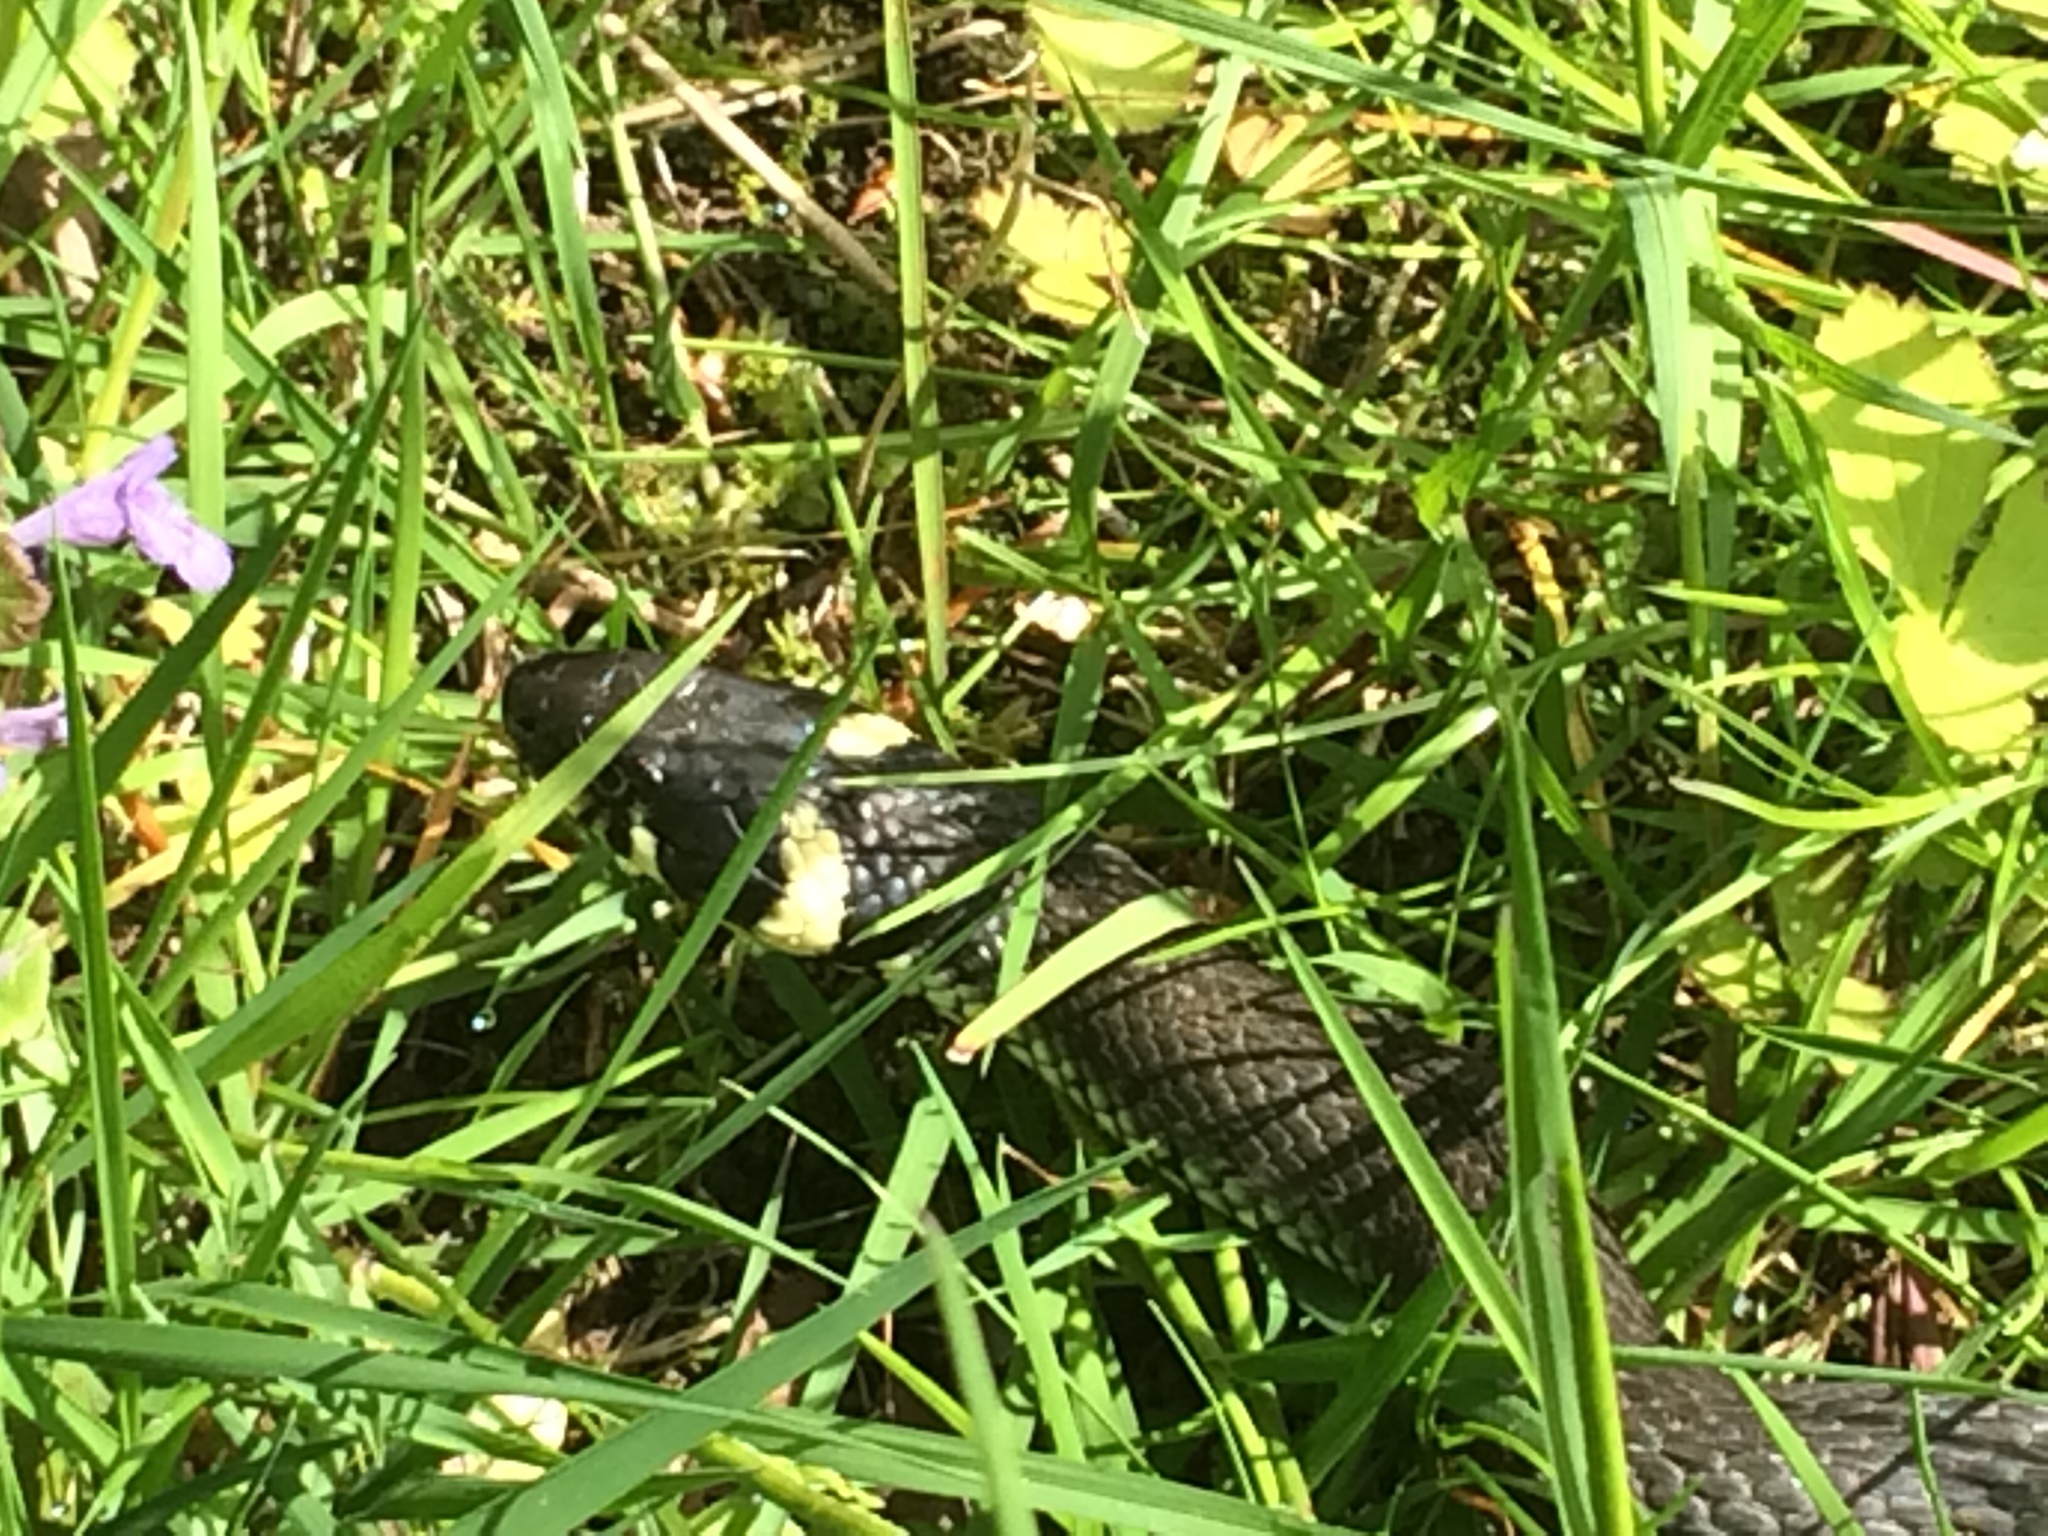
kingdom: Animalia
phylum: Chordata
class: Squamata
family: Colubridae
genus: Natrix
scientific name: Natrix natrix
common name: Grass snake
